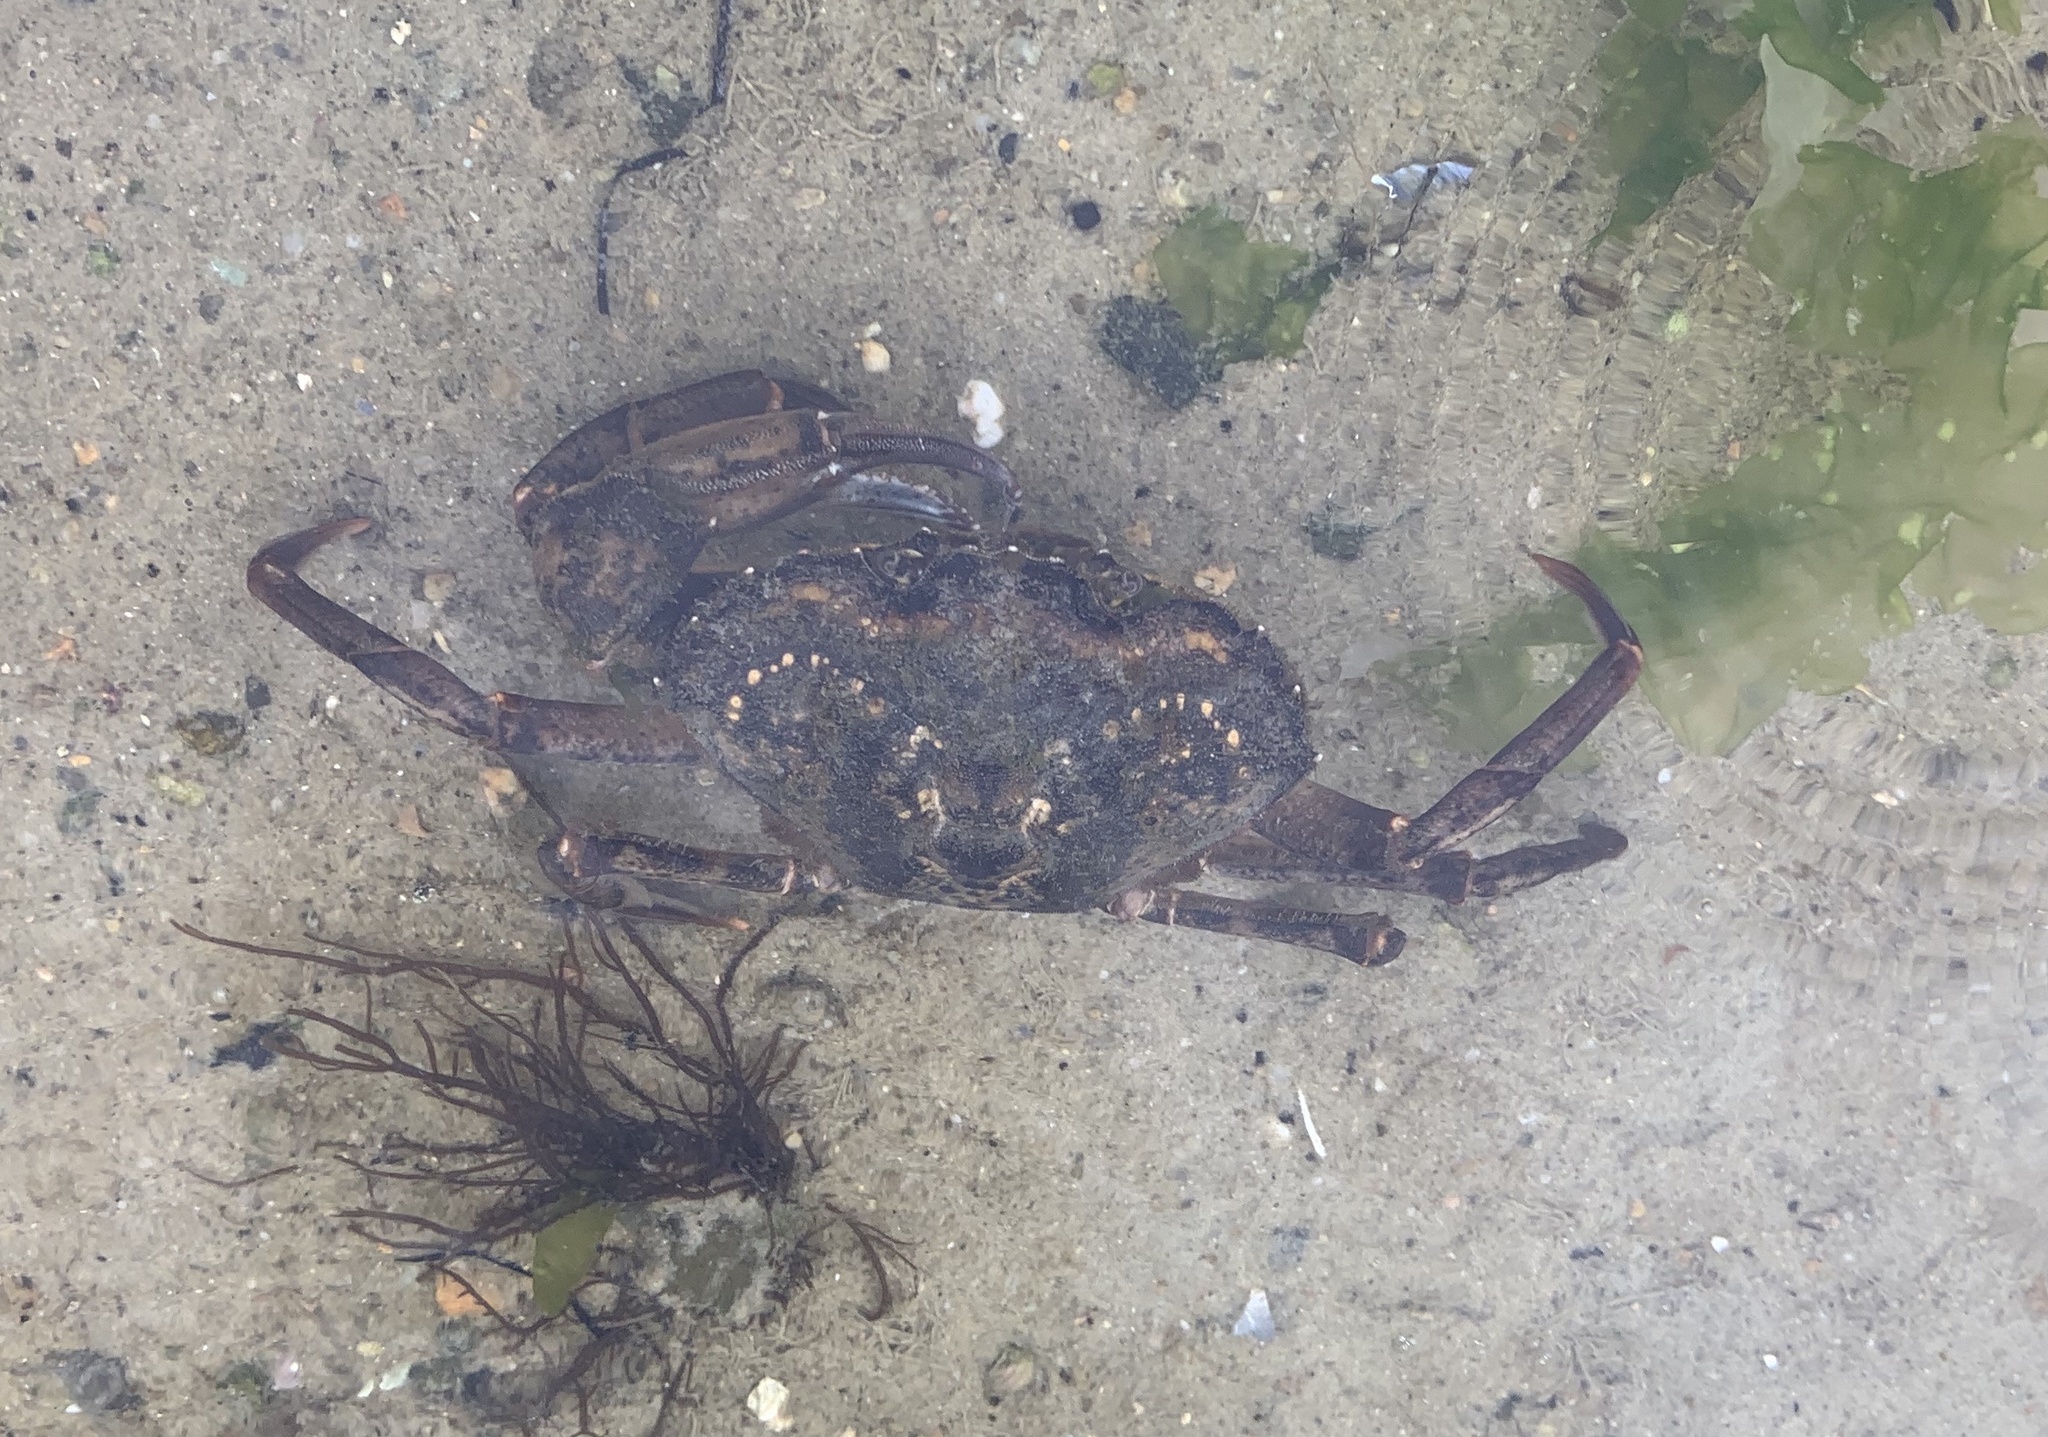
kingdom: Animalia
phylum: Arthropoda
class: Malacostraca
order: Decapoda
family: Carcinidae
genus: Carcinus
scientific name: Carcinus maenas
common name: European green crab
